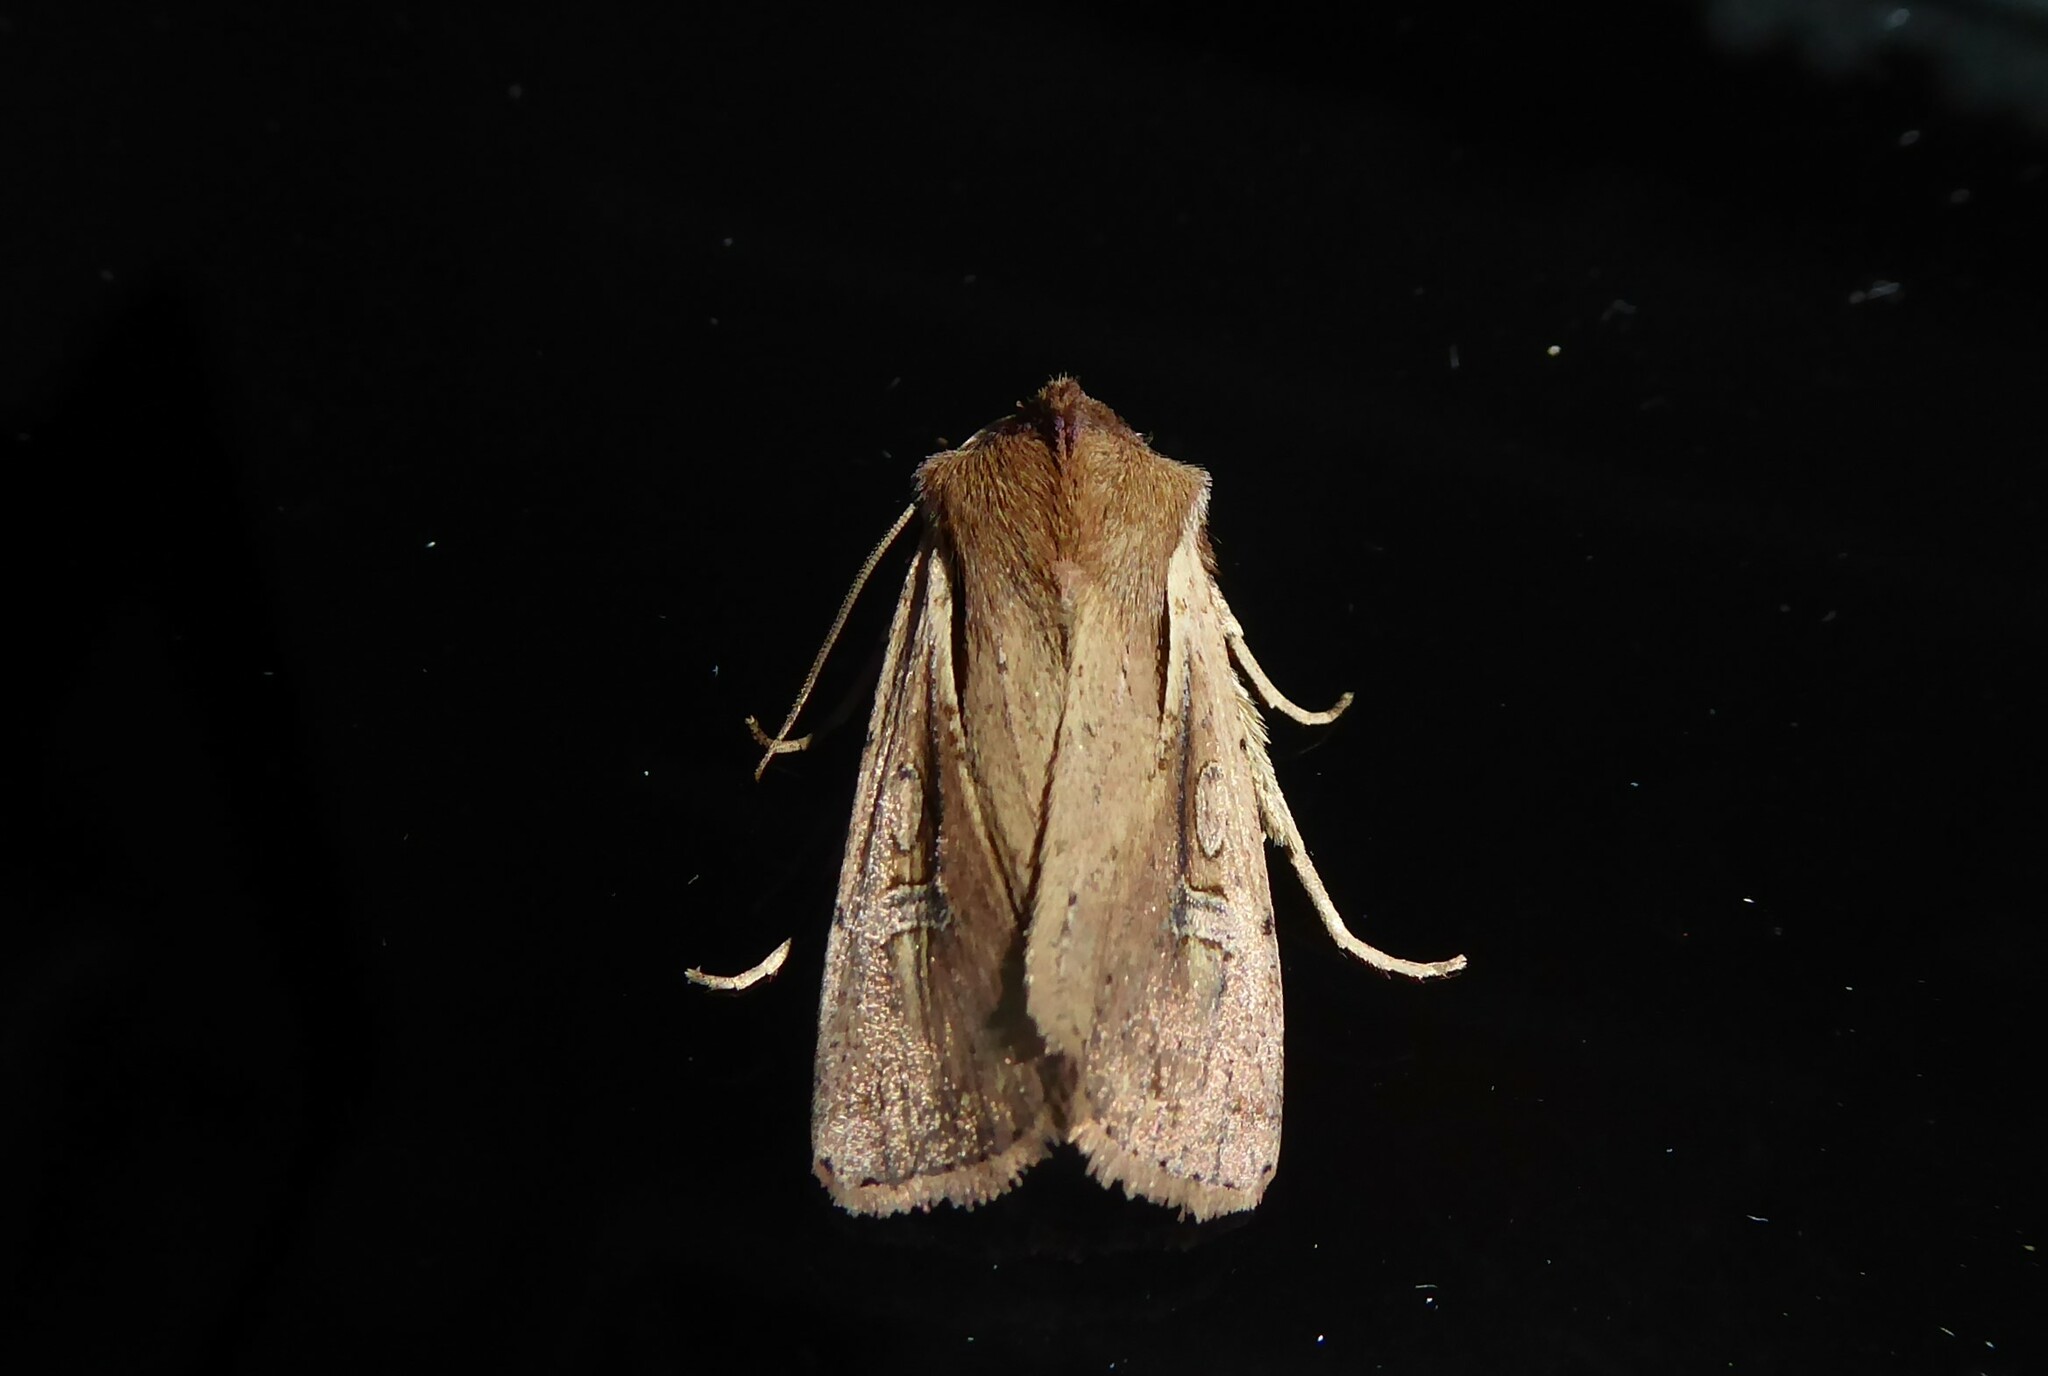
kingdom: Animalia
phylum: Arthropoda
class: Insecta
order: Lepidoptera
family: Noctuidae
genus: Ichneutica
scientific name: Ichneutica atristriga
